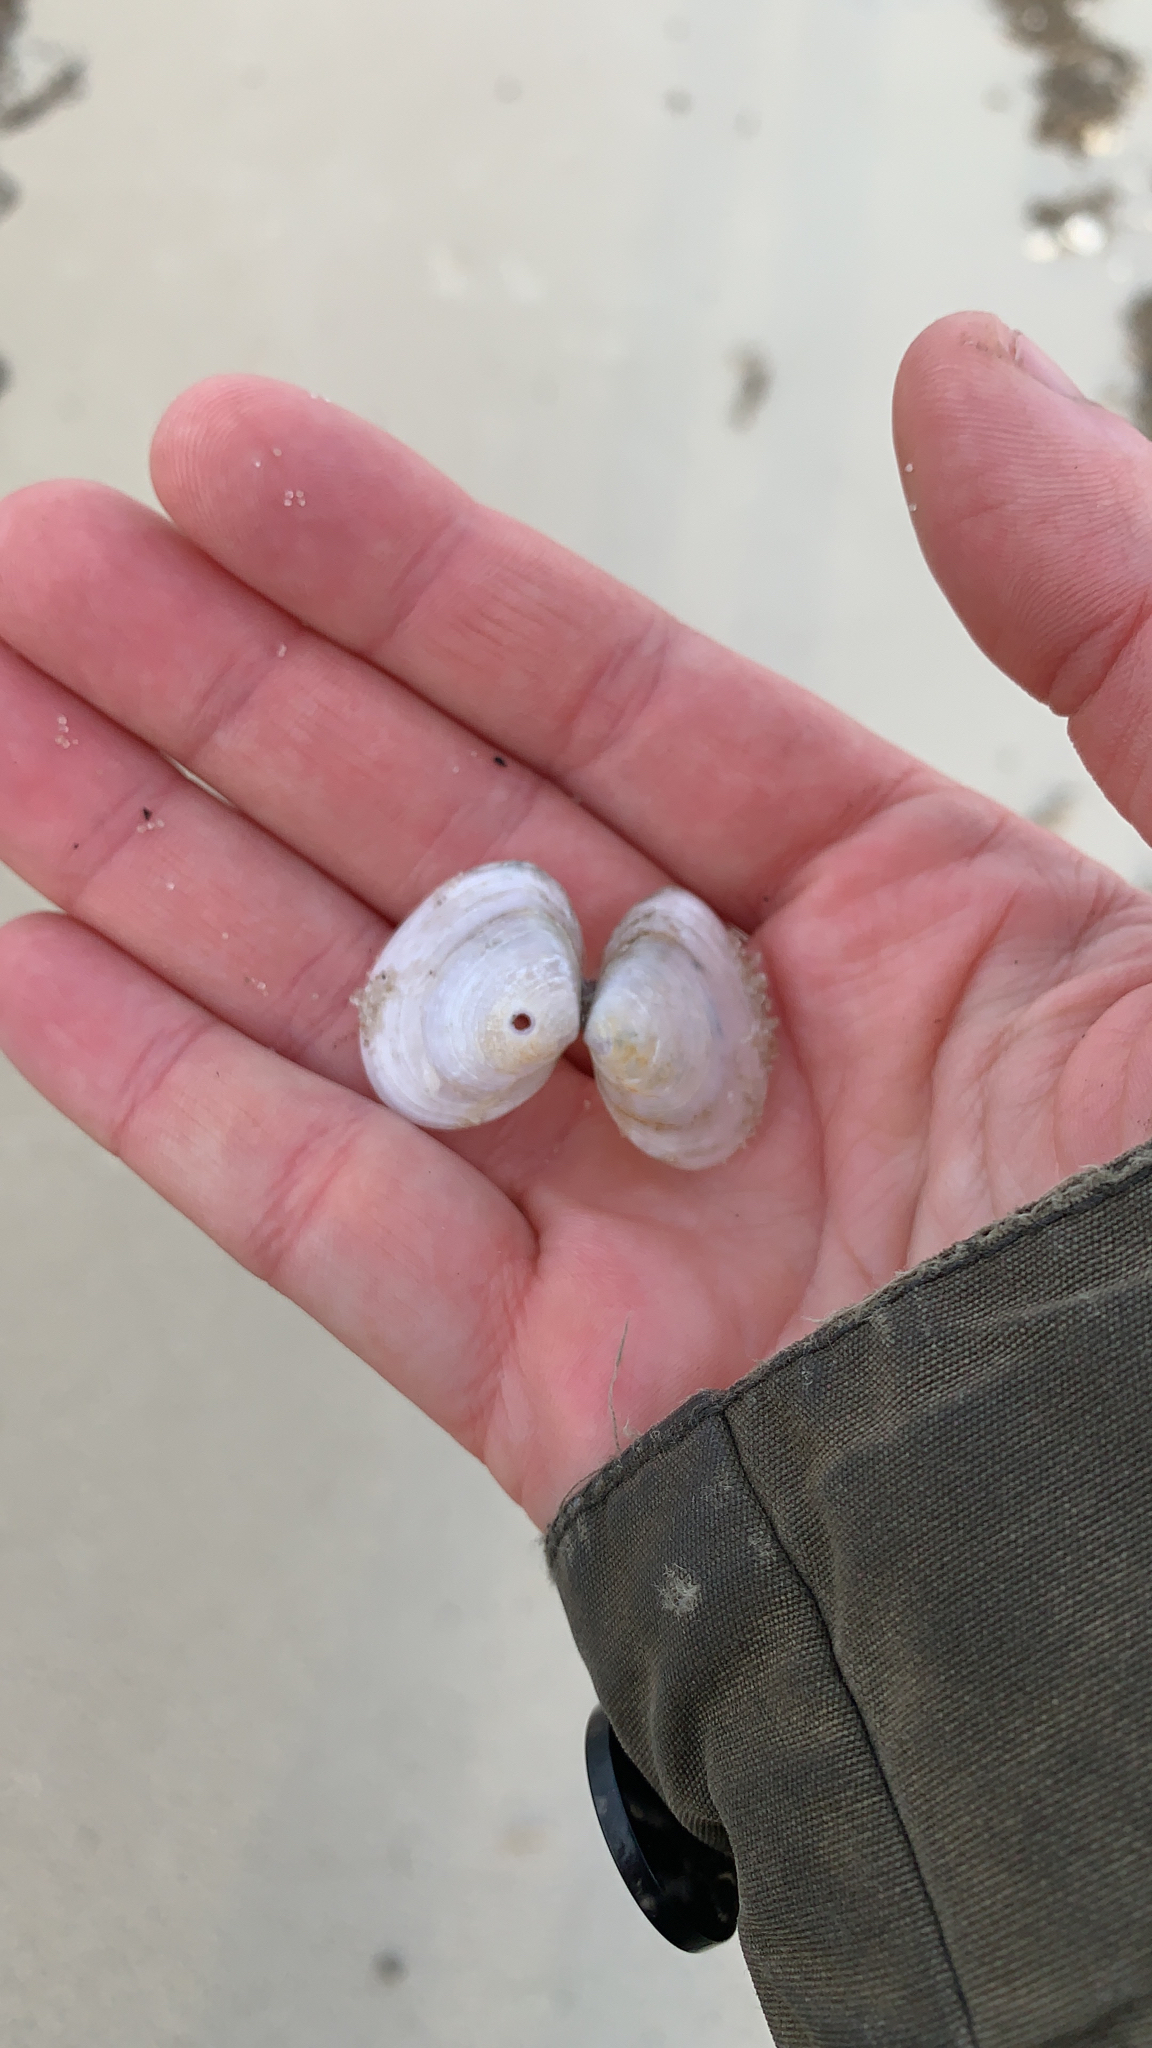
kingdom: Animalia
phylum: Mollusca
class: Bivalvia
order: Cardiida
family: Tellinidae
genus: Macoma
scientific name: Macoma petalum
